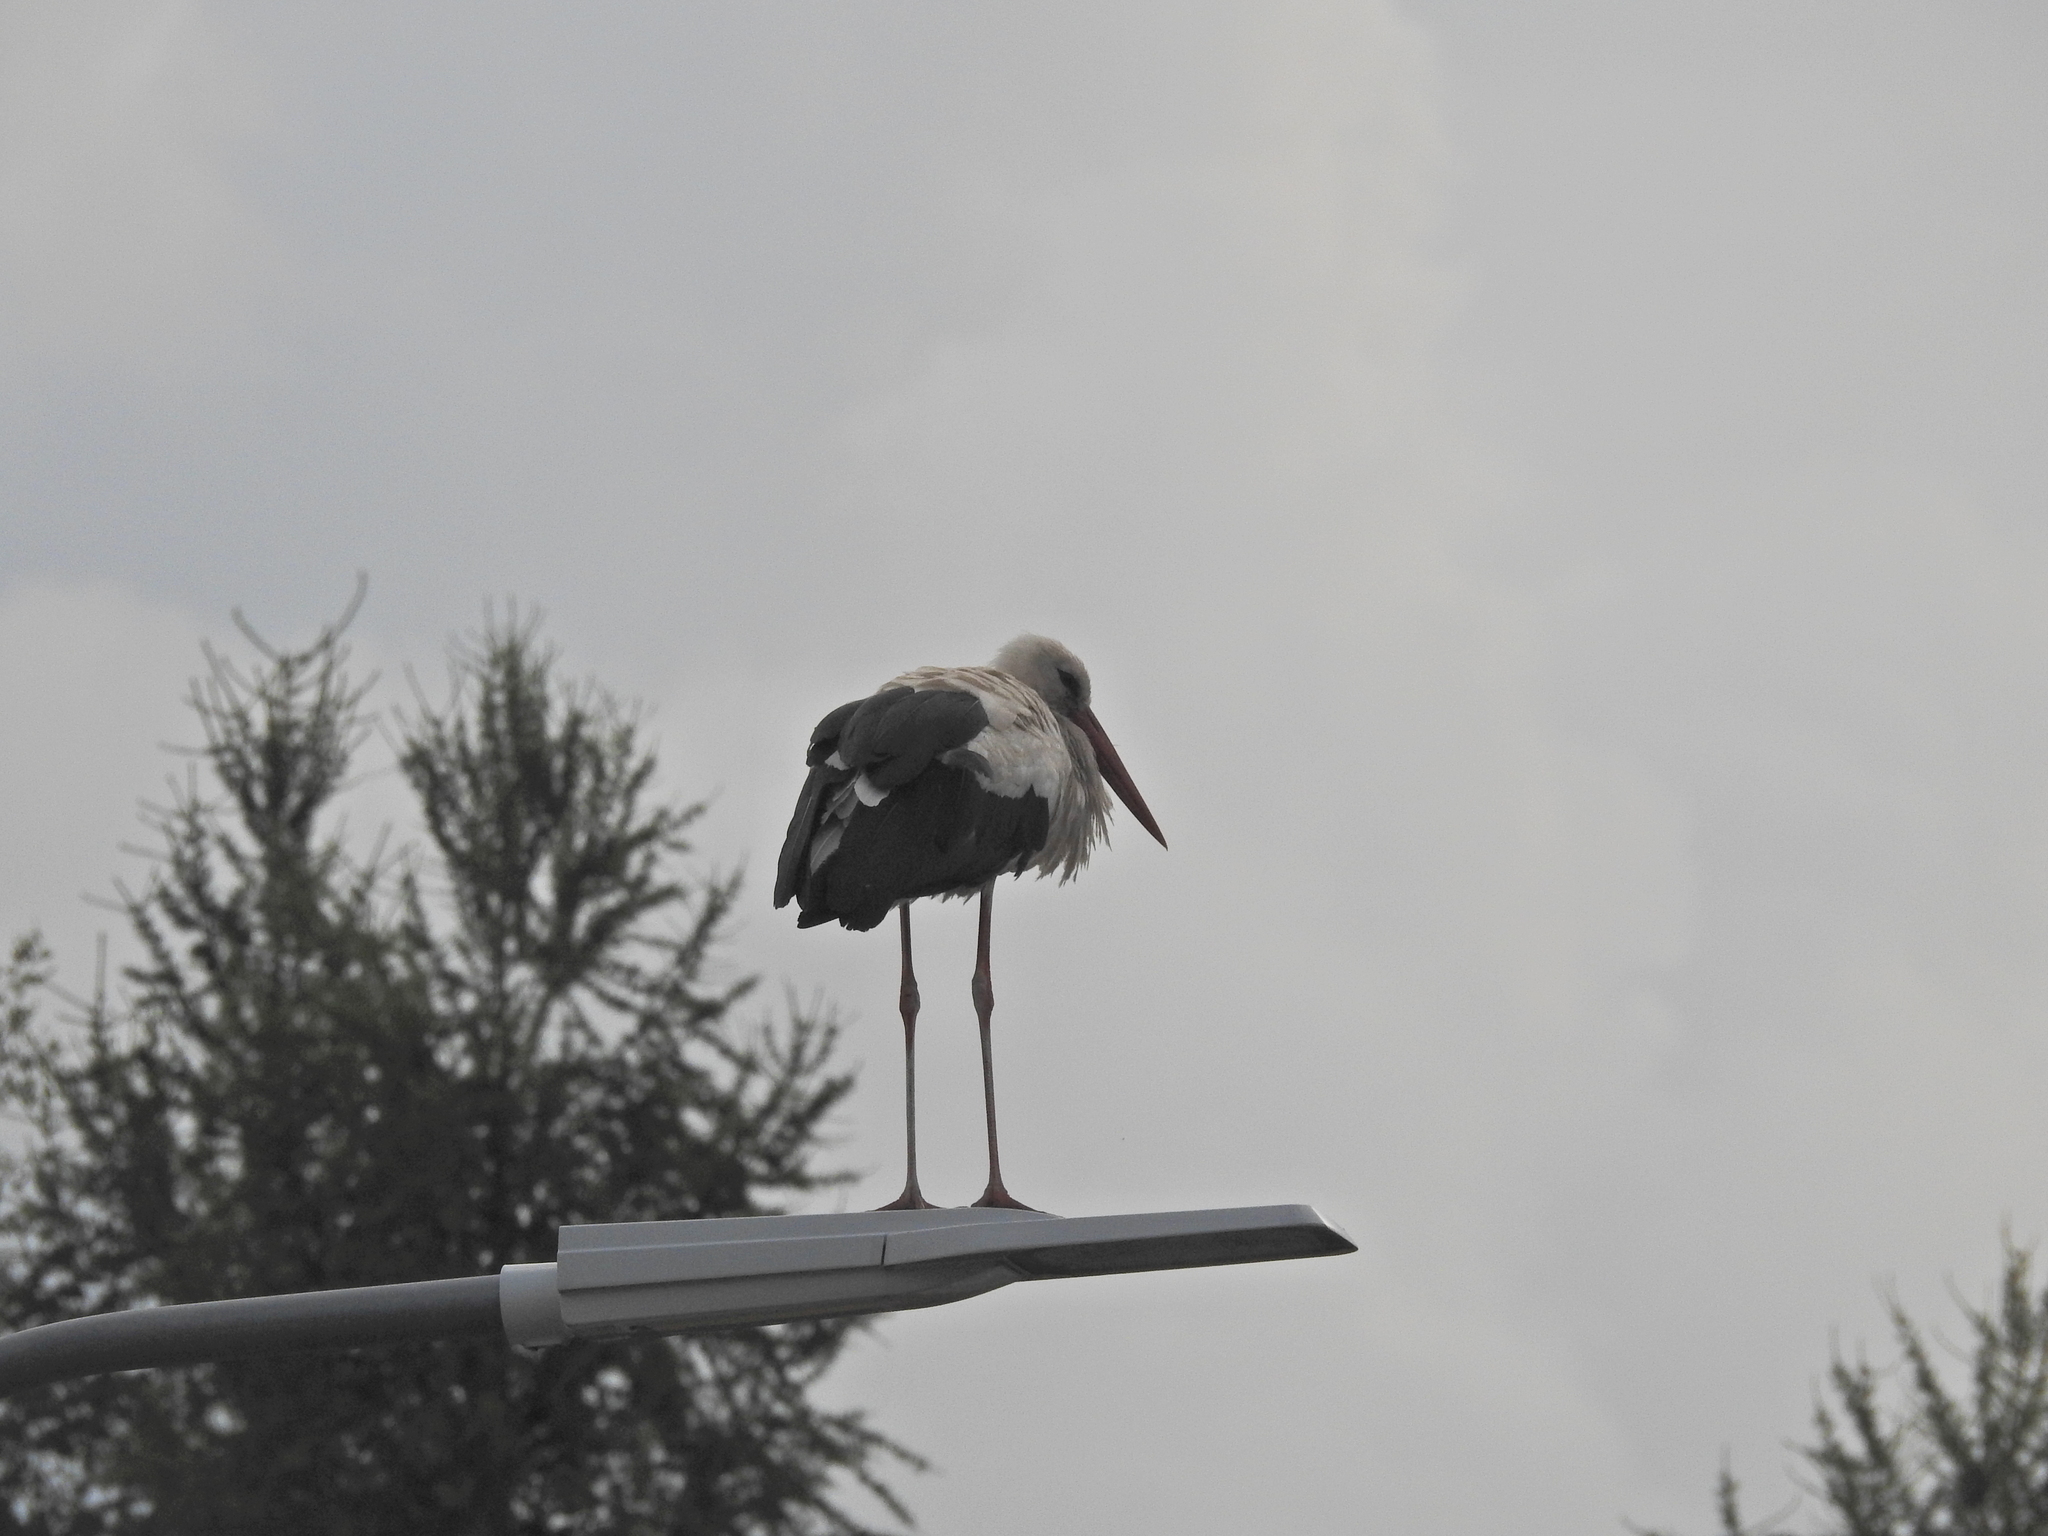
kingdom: Animalia
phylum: Chordata
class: Aves
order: Ciconiiformes
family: Ciconiidae
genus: Ciconia
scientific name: Ciconia ciconia
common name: White stork
